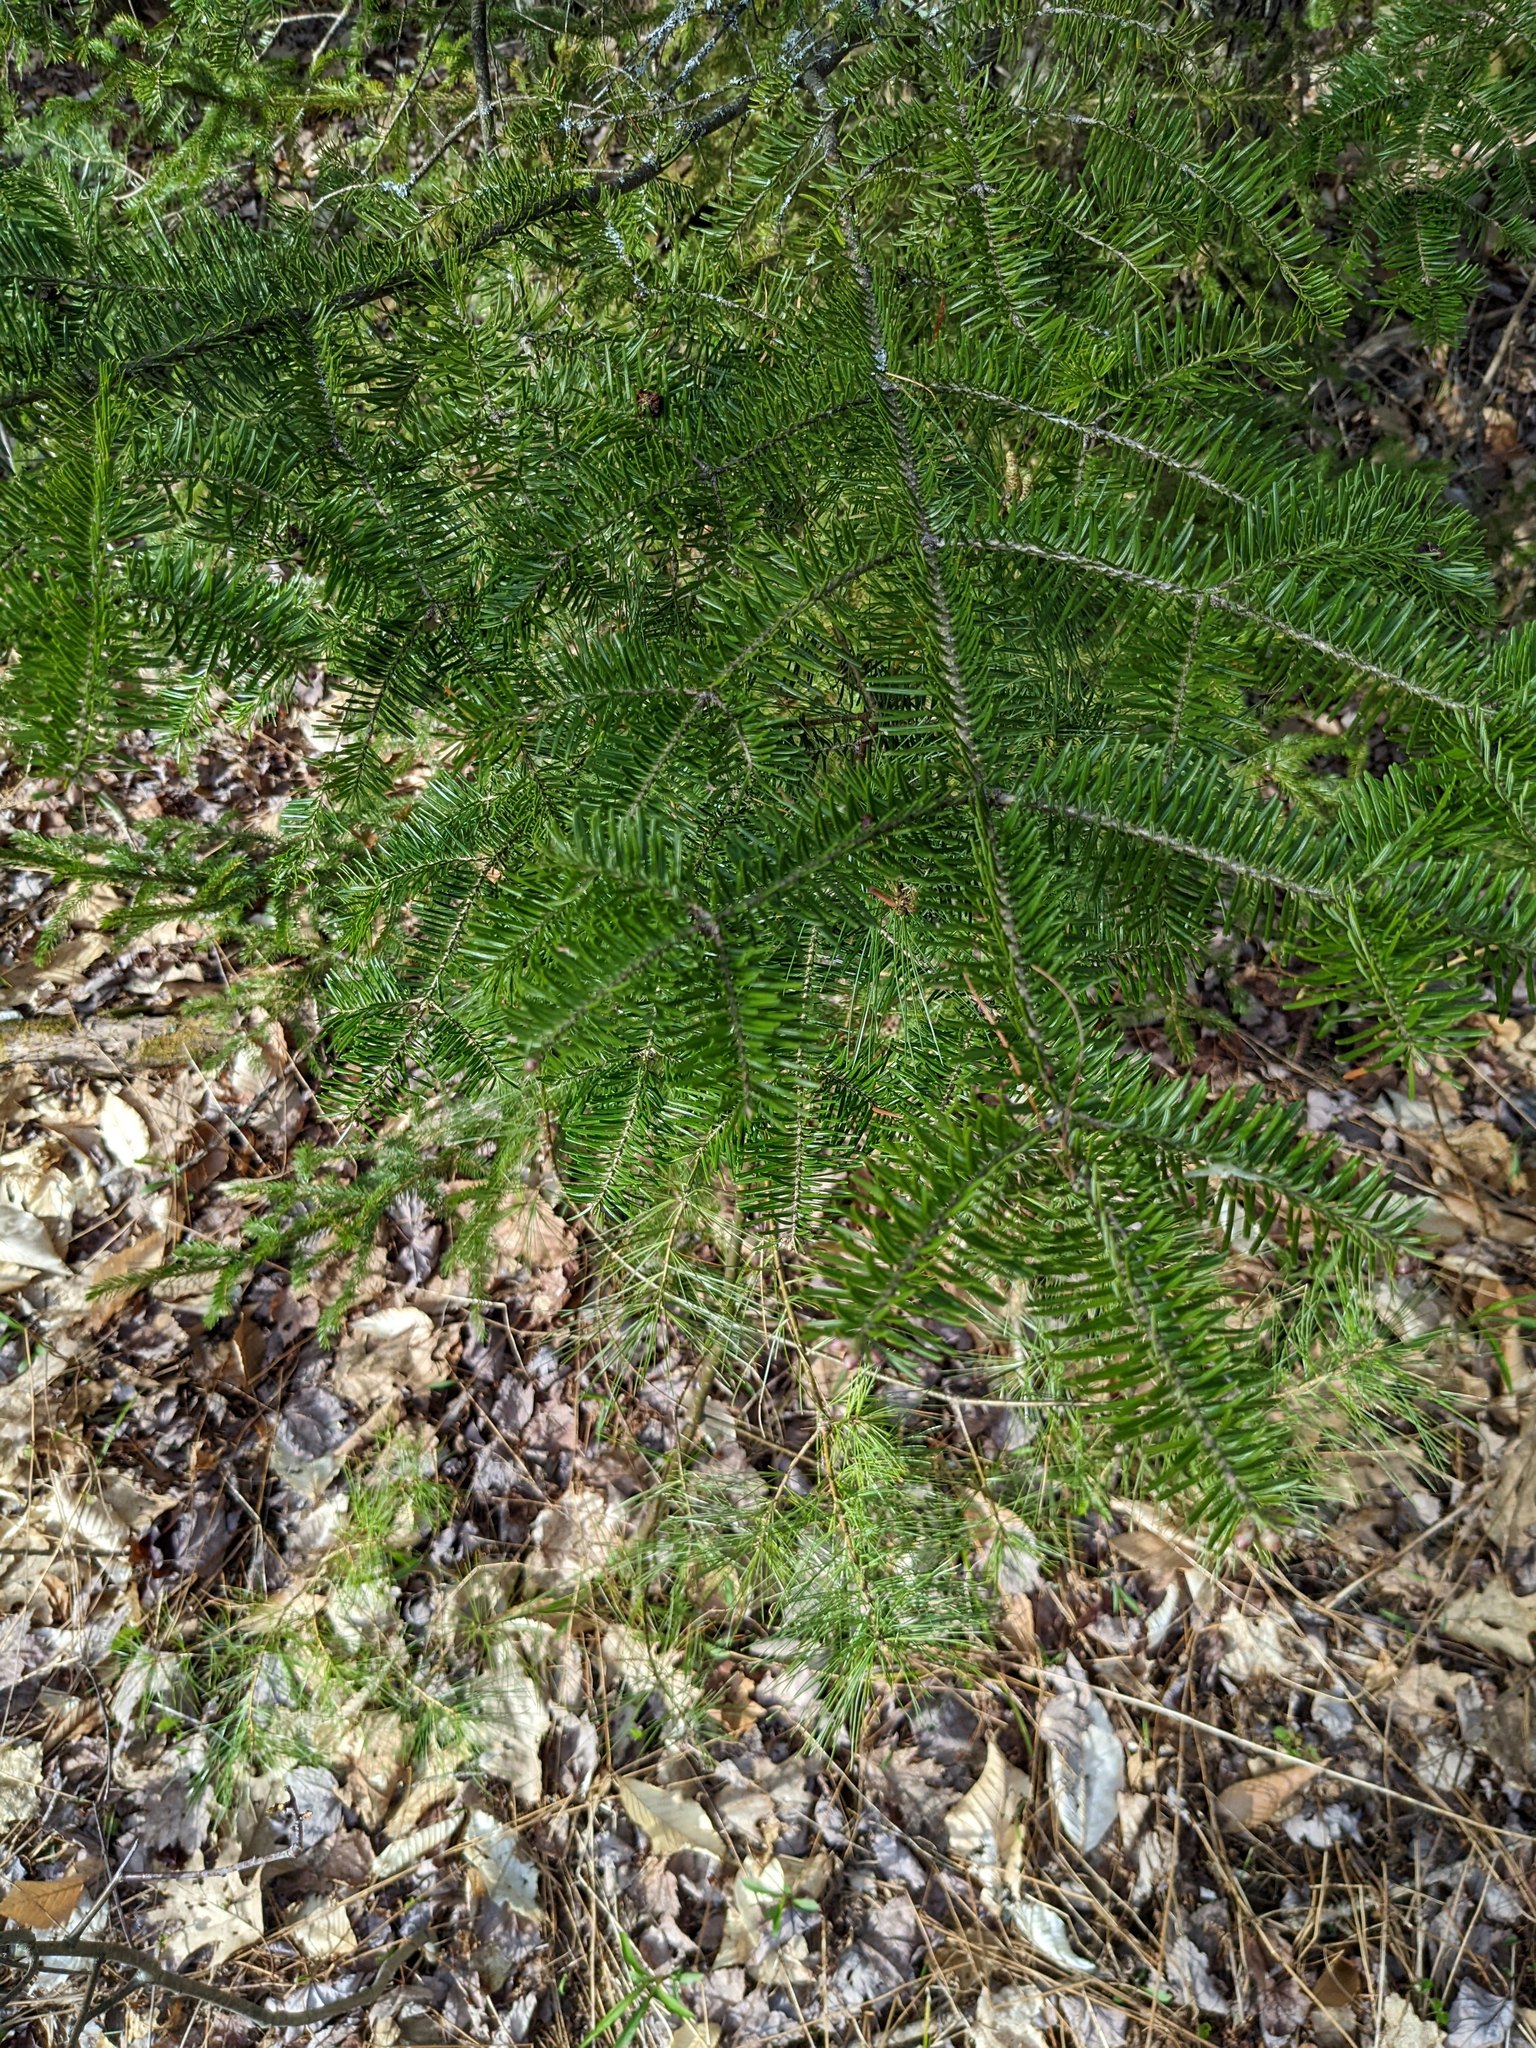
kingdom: Plantae
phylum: Tracheophyta
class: Pinopsida
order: Pinales
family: Pinaceae
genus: Abies
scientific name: Abies balsamea
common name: Balsam fir
